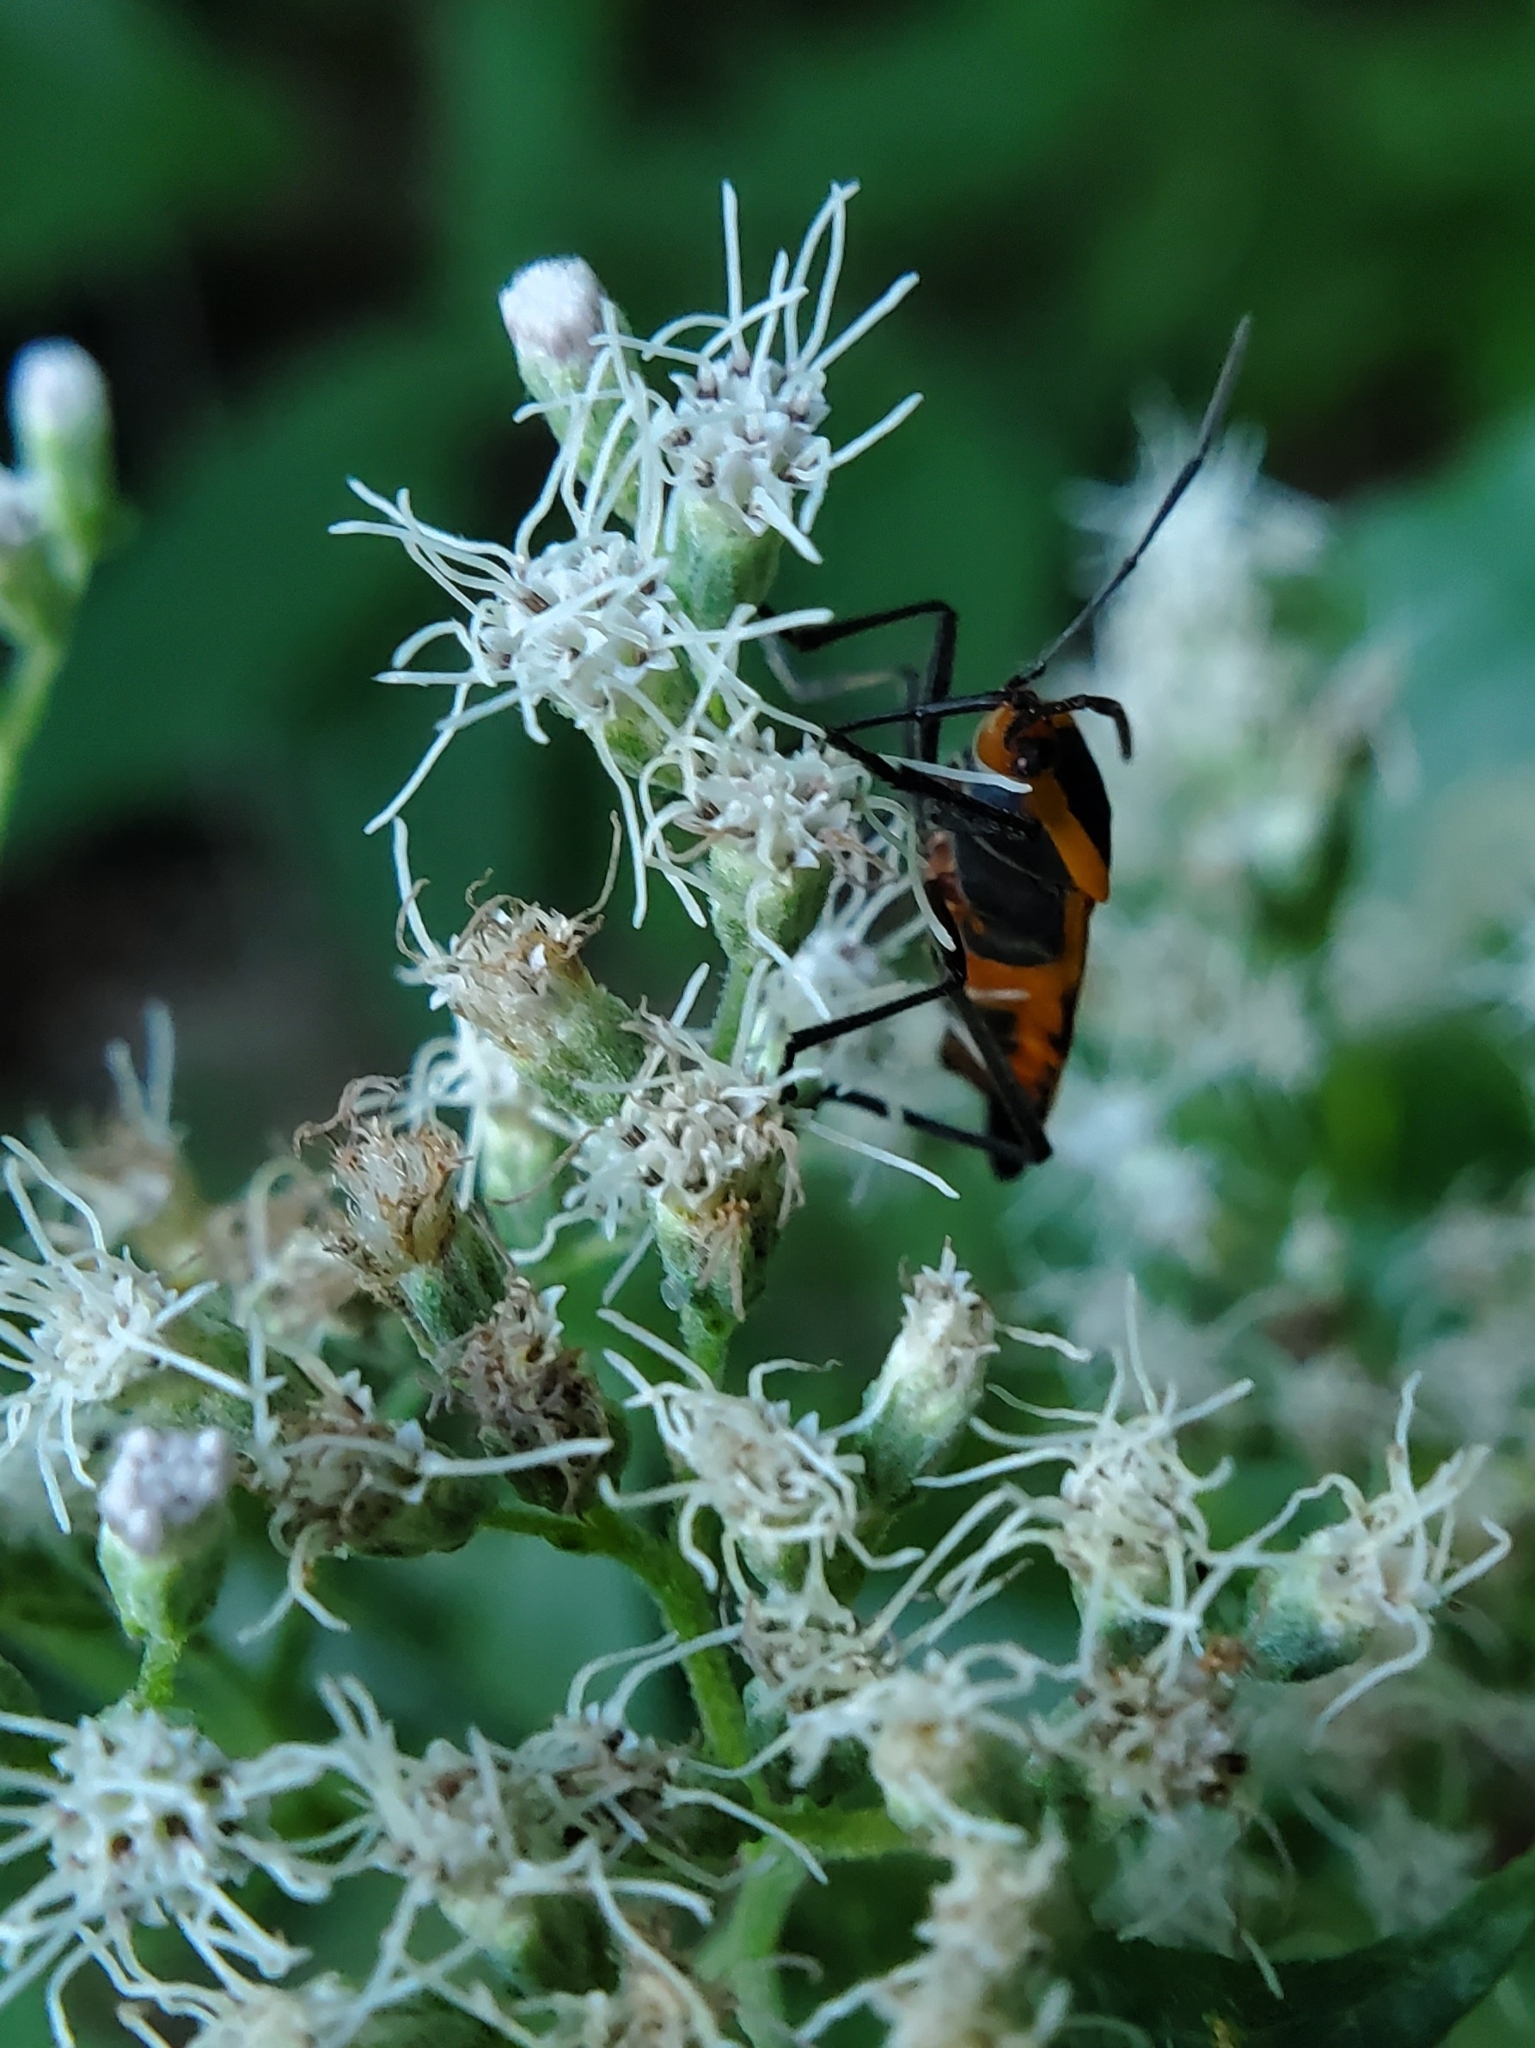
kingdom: Animalia
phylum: Arthropoda
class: Insecta
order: Hemiptera
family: Lygaeidae
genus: Oncopeltus
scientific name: Oncopeltus fasciatus
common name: Large milkweed bug
